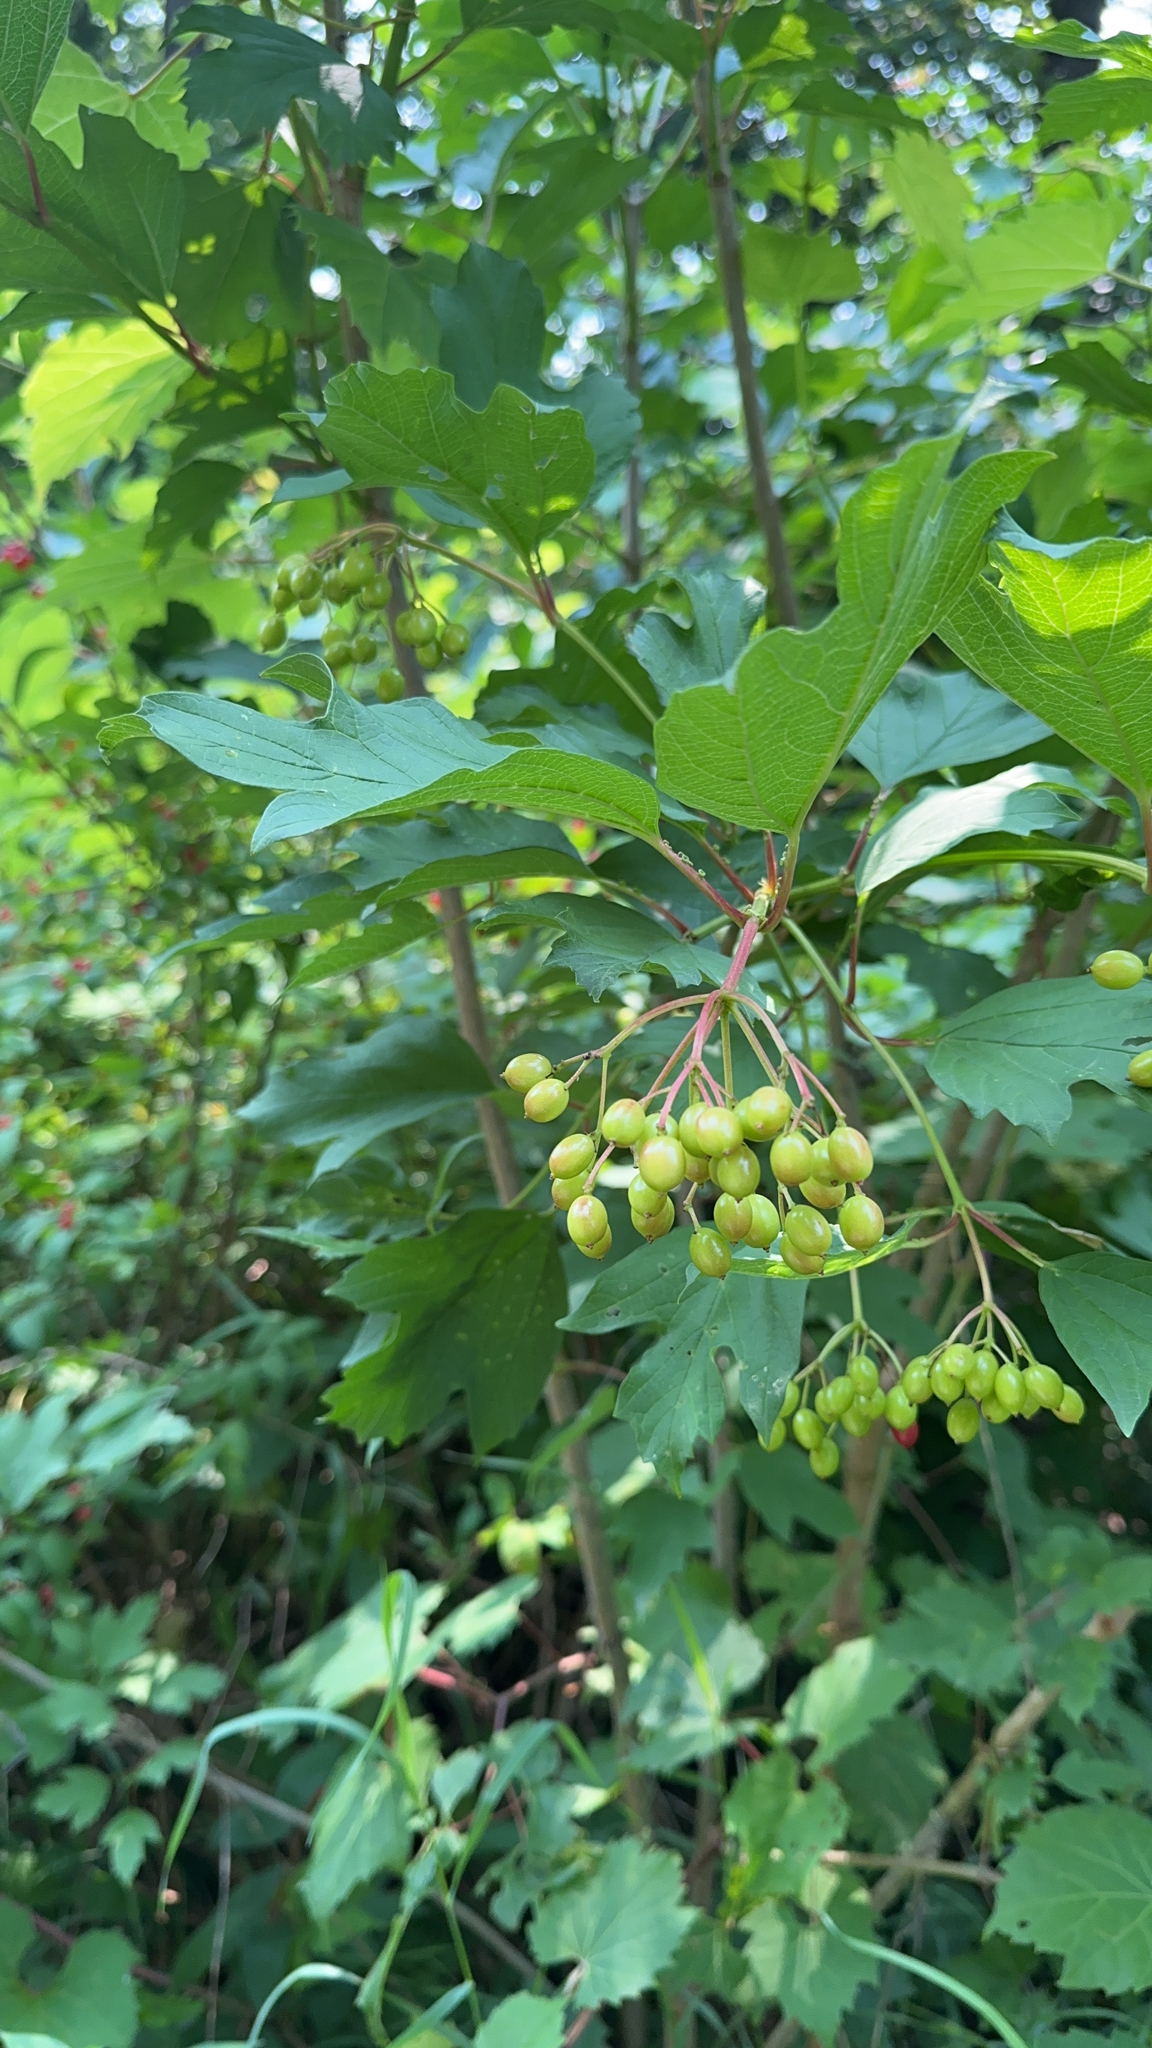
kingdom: Plantae
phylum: Tracheophyta
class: Magnoliopsida
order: Dipsacales
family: Viburnaceae
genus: Viburnum
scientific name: Viburnum opulus
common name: Guelder-rose
